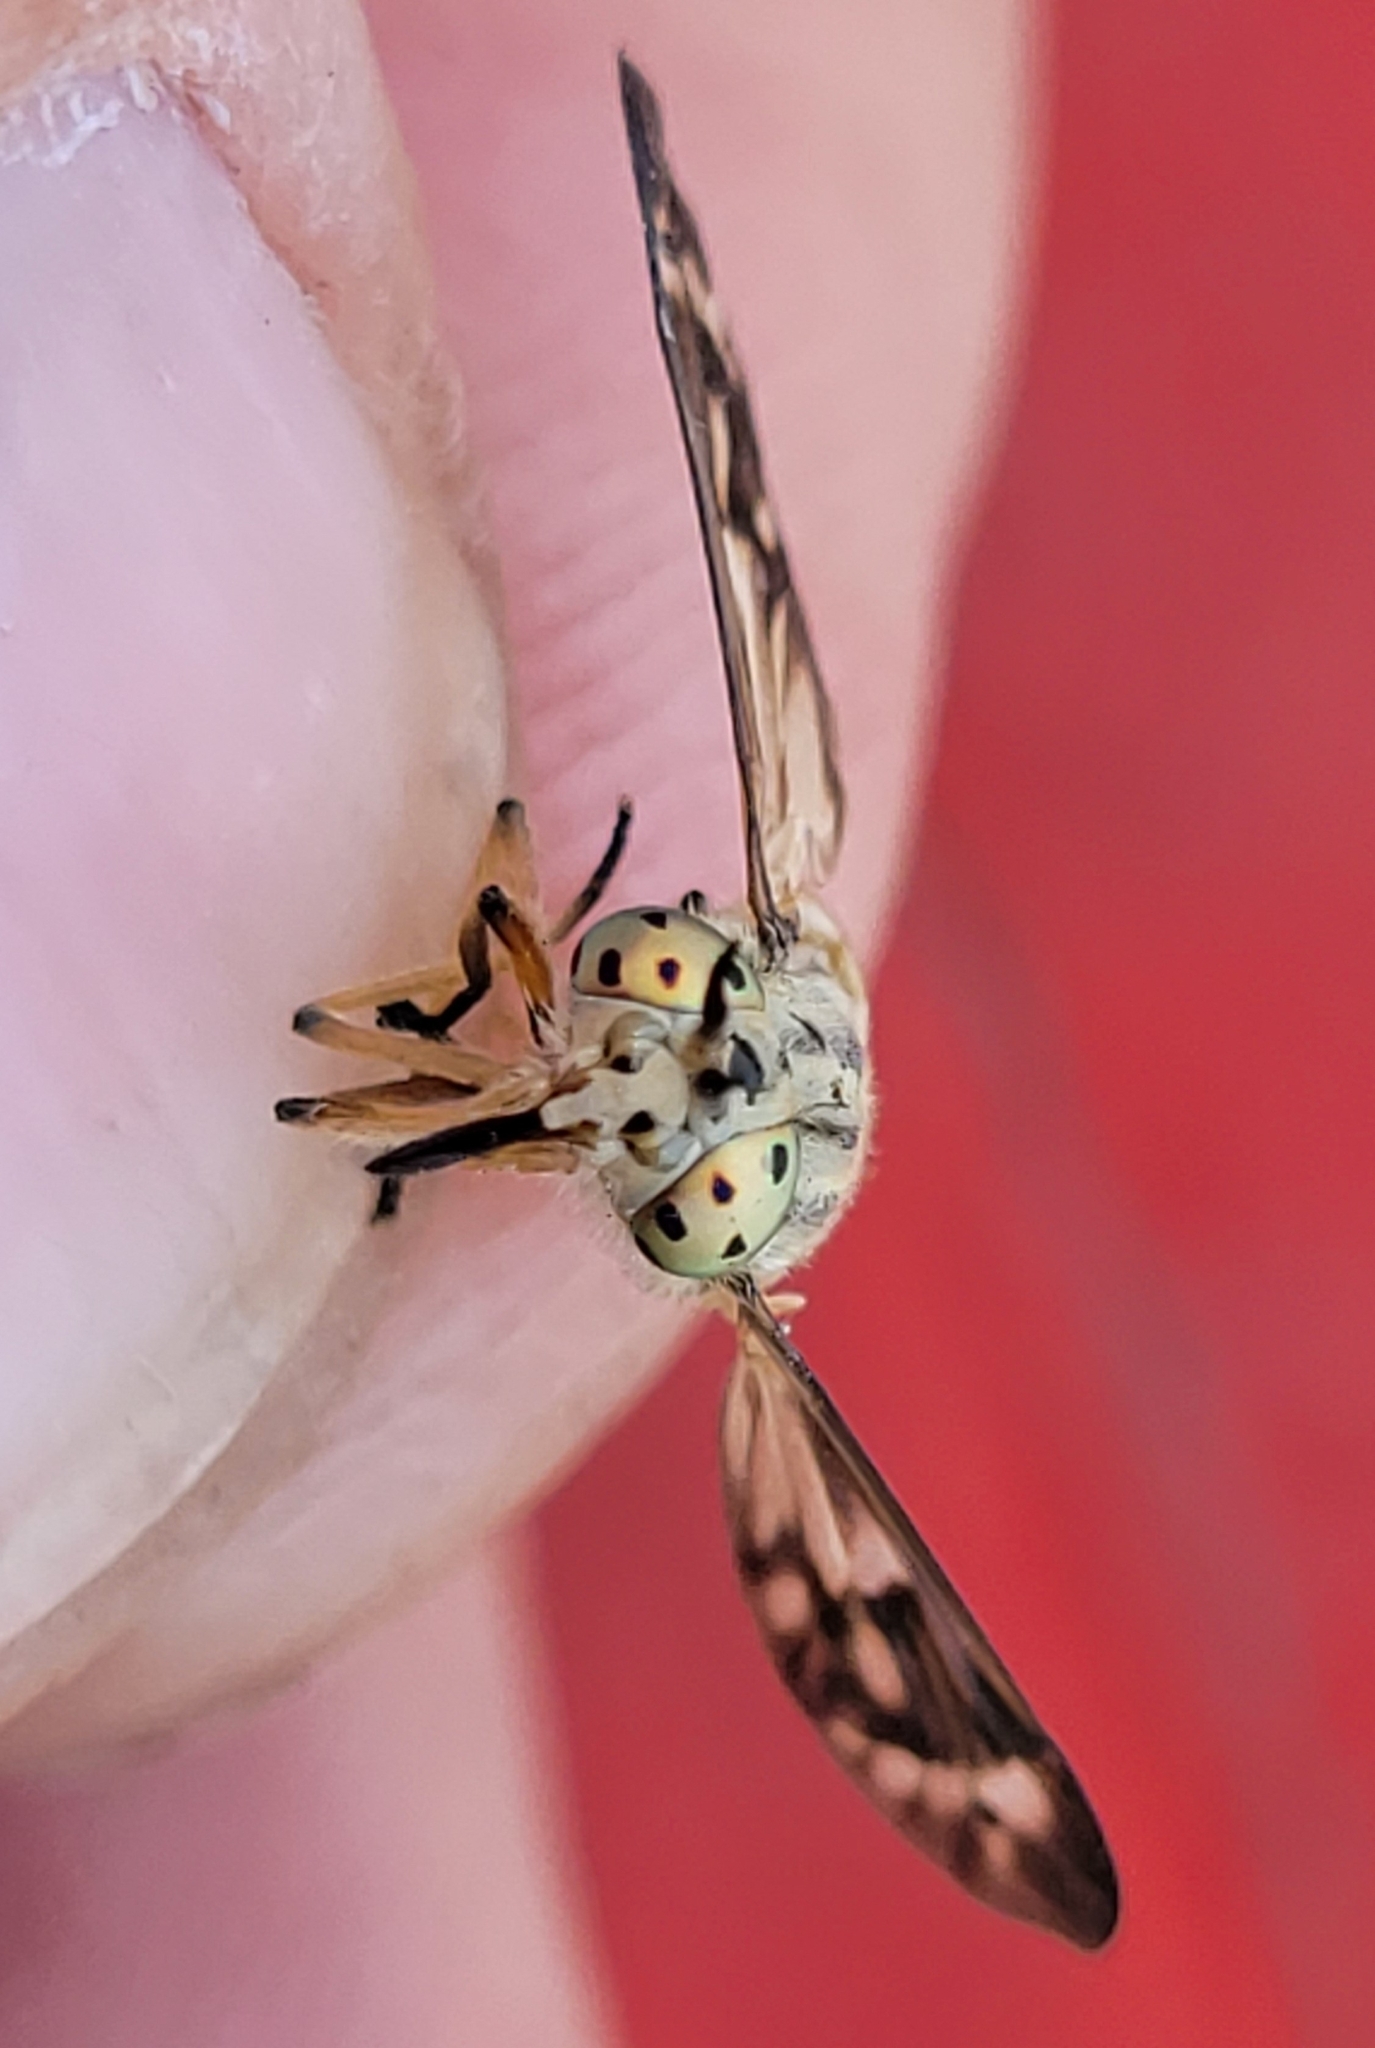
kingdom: Animalia
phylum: Arthropoda
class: Insecta
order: Diptera
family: Tabanidae
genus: Chrysops
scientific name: Chrysops discalis
